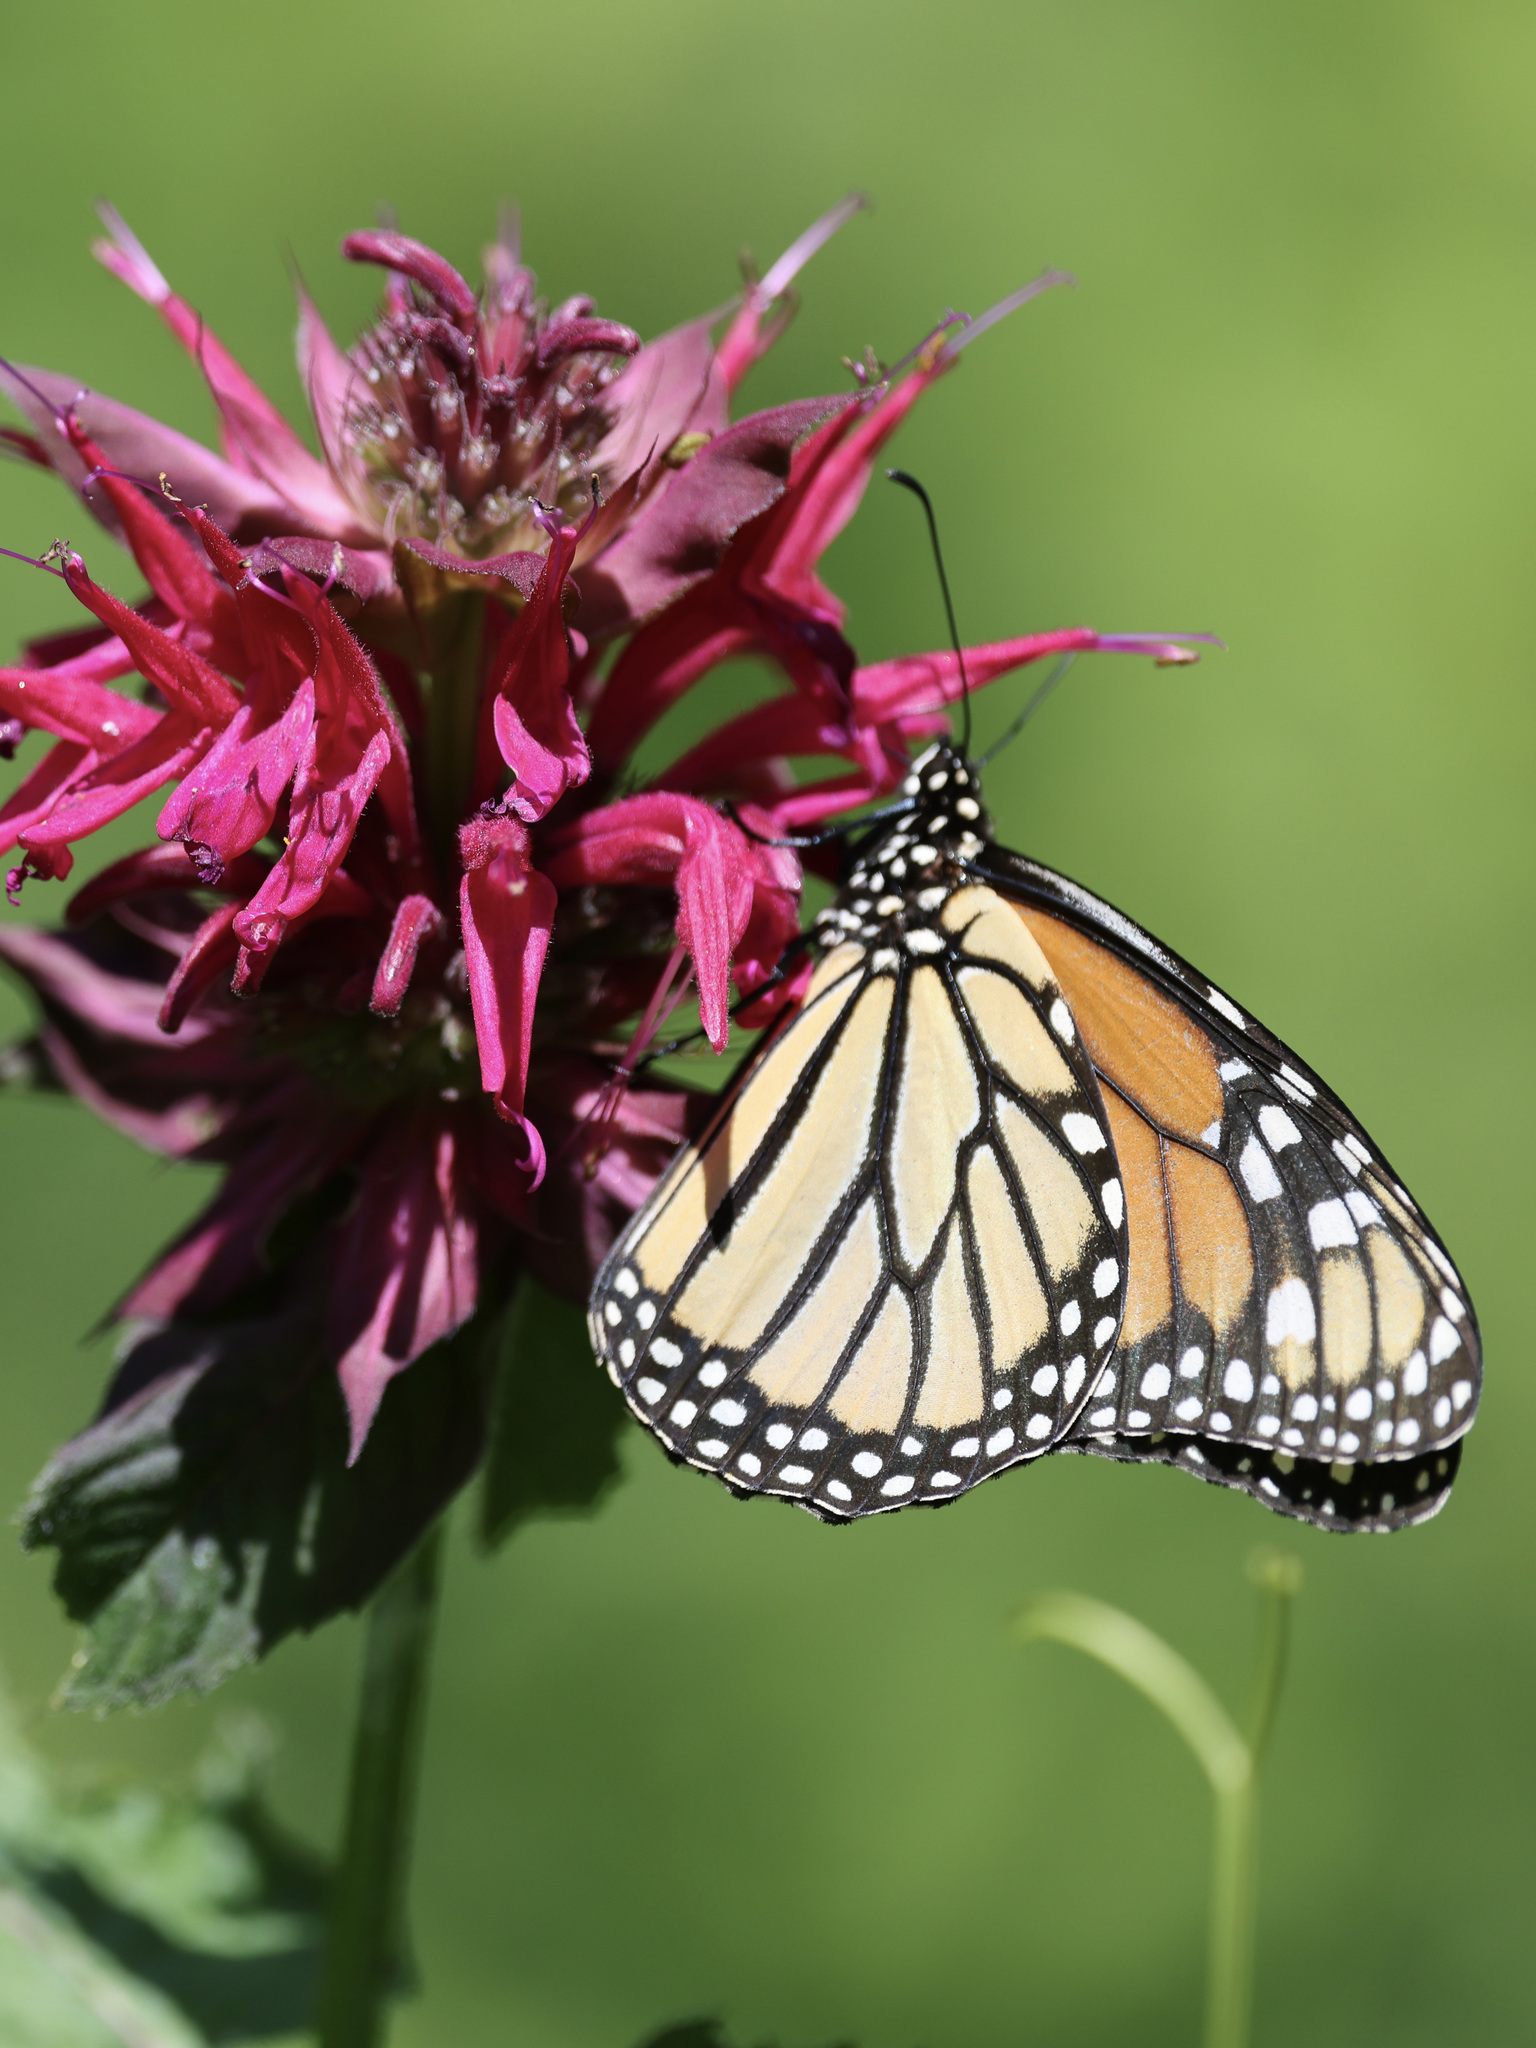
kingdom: Animalia
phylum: Arthropoda
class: Insecta
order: Lepidoptera
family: Nymphalidae
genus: Danaus
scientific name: Danaus plexippus
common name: Monarch
